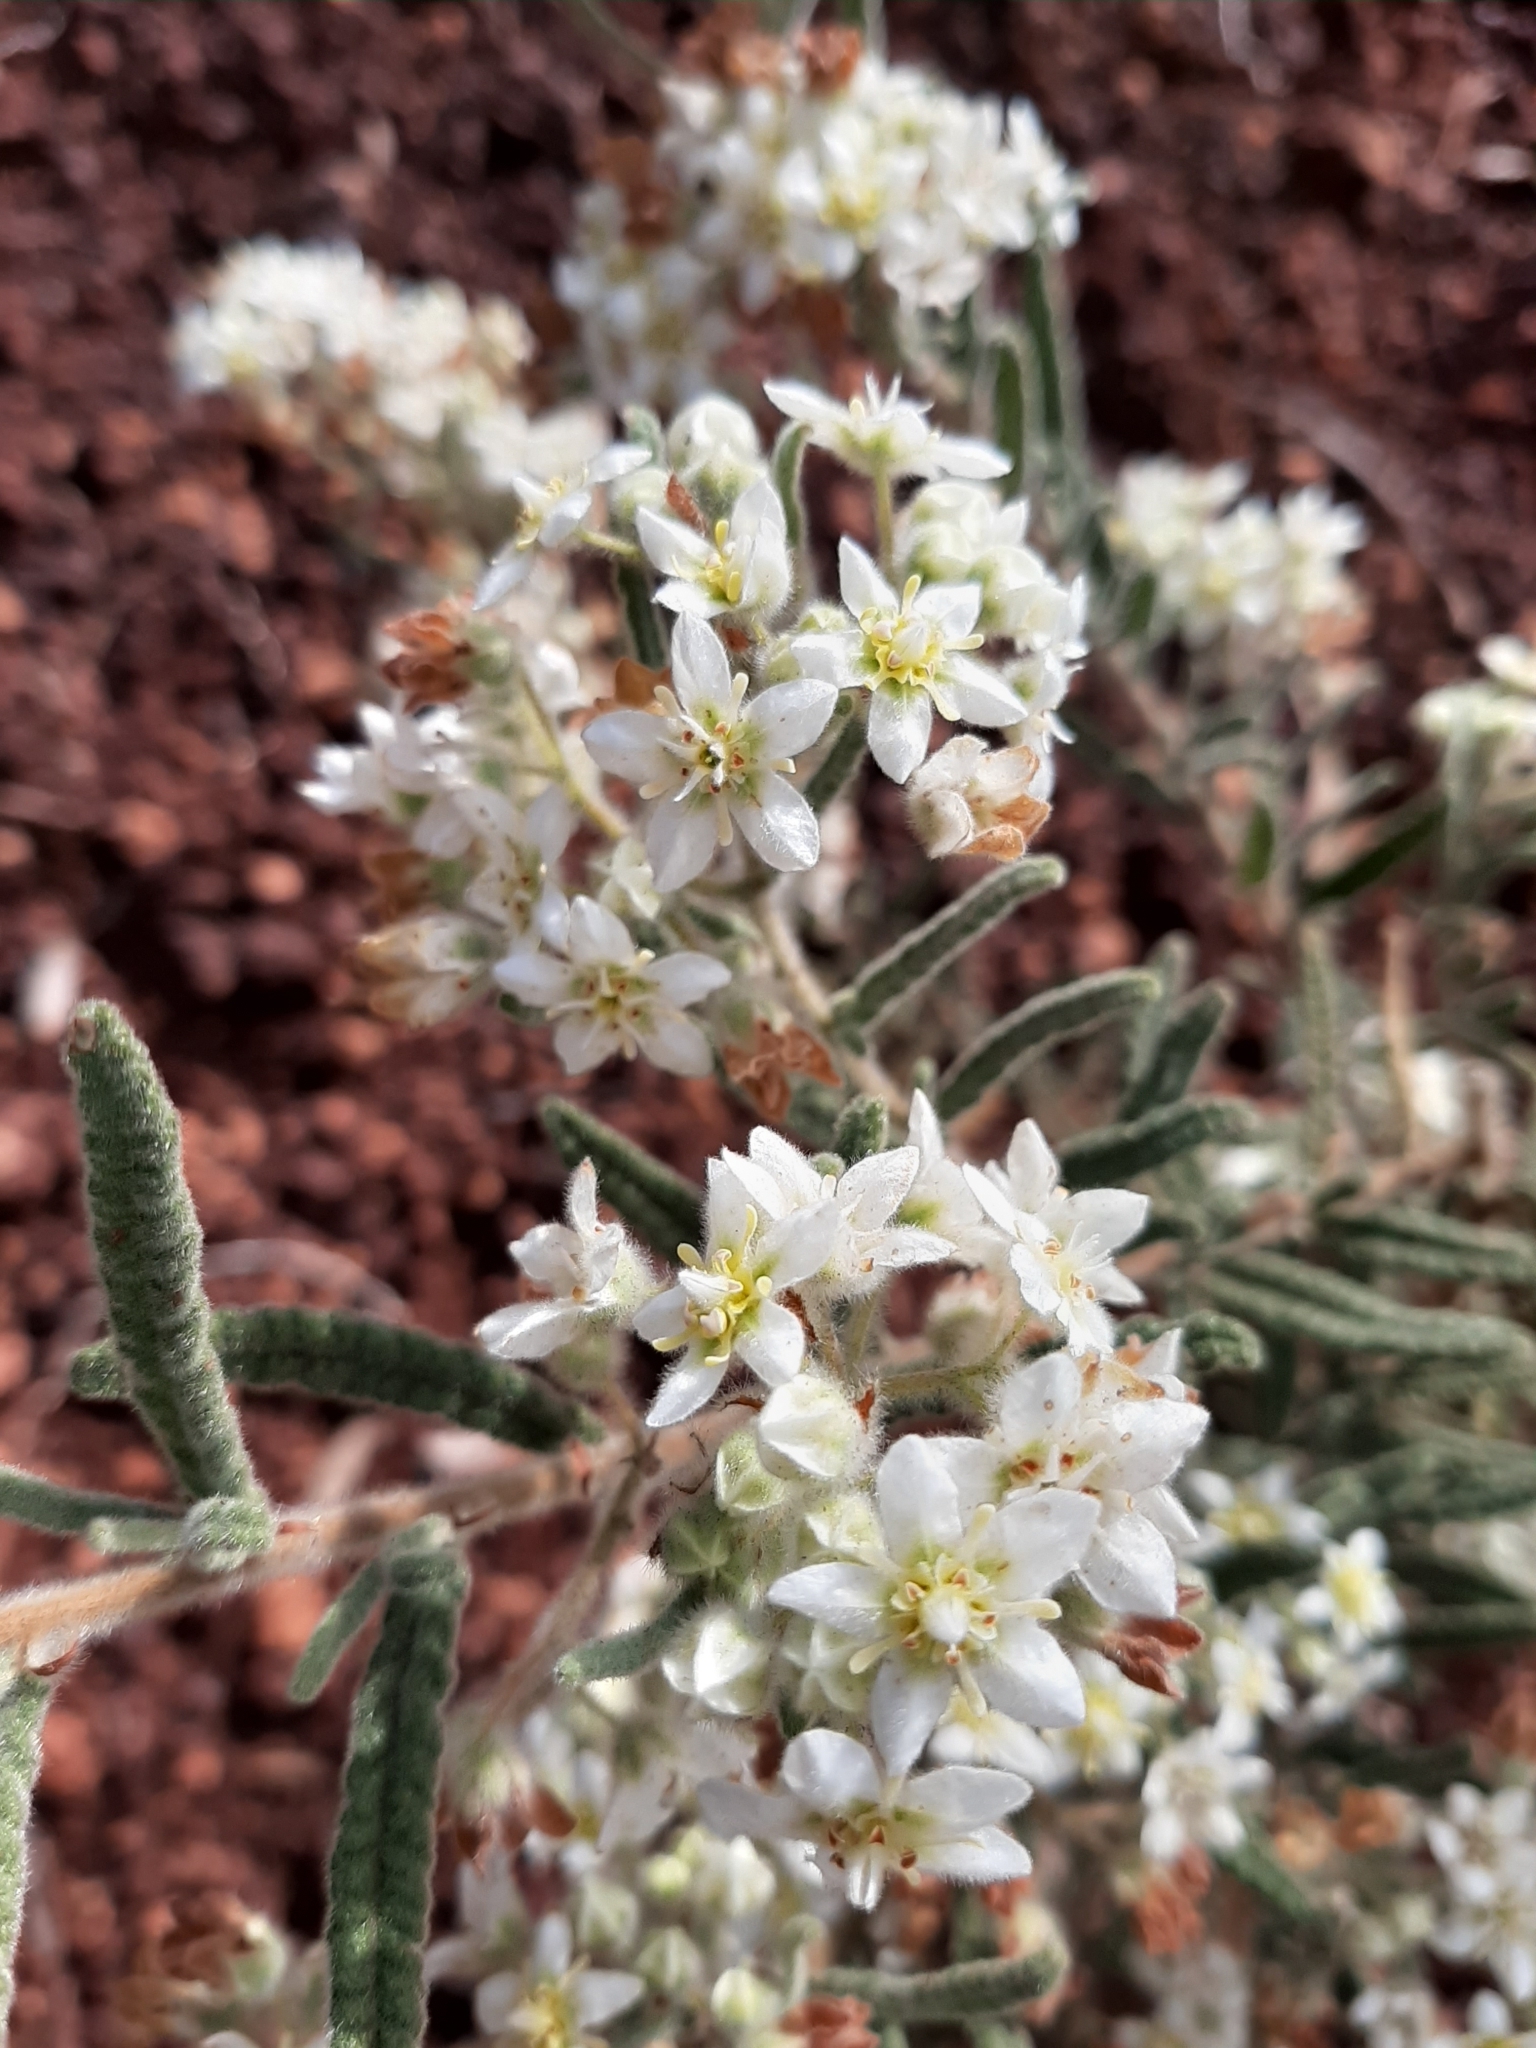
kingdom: Plantae
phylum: Tracheophyta
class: Magnoliopsida
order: Malvales
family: Malvaceae
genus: Commersonia
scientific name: Commersonia craurophylla
